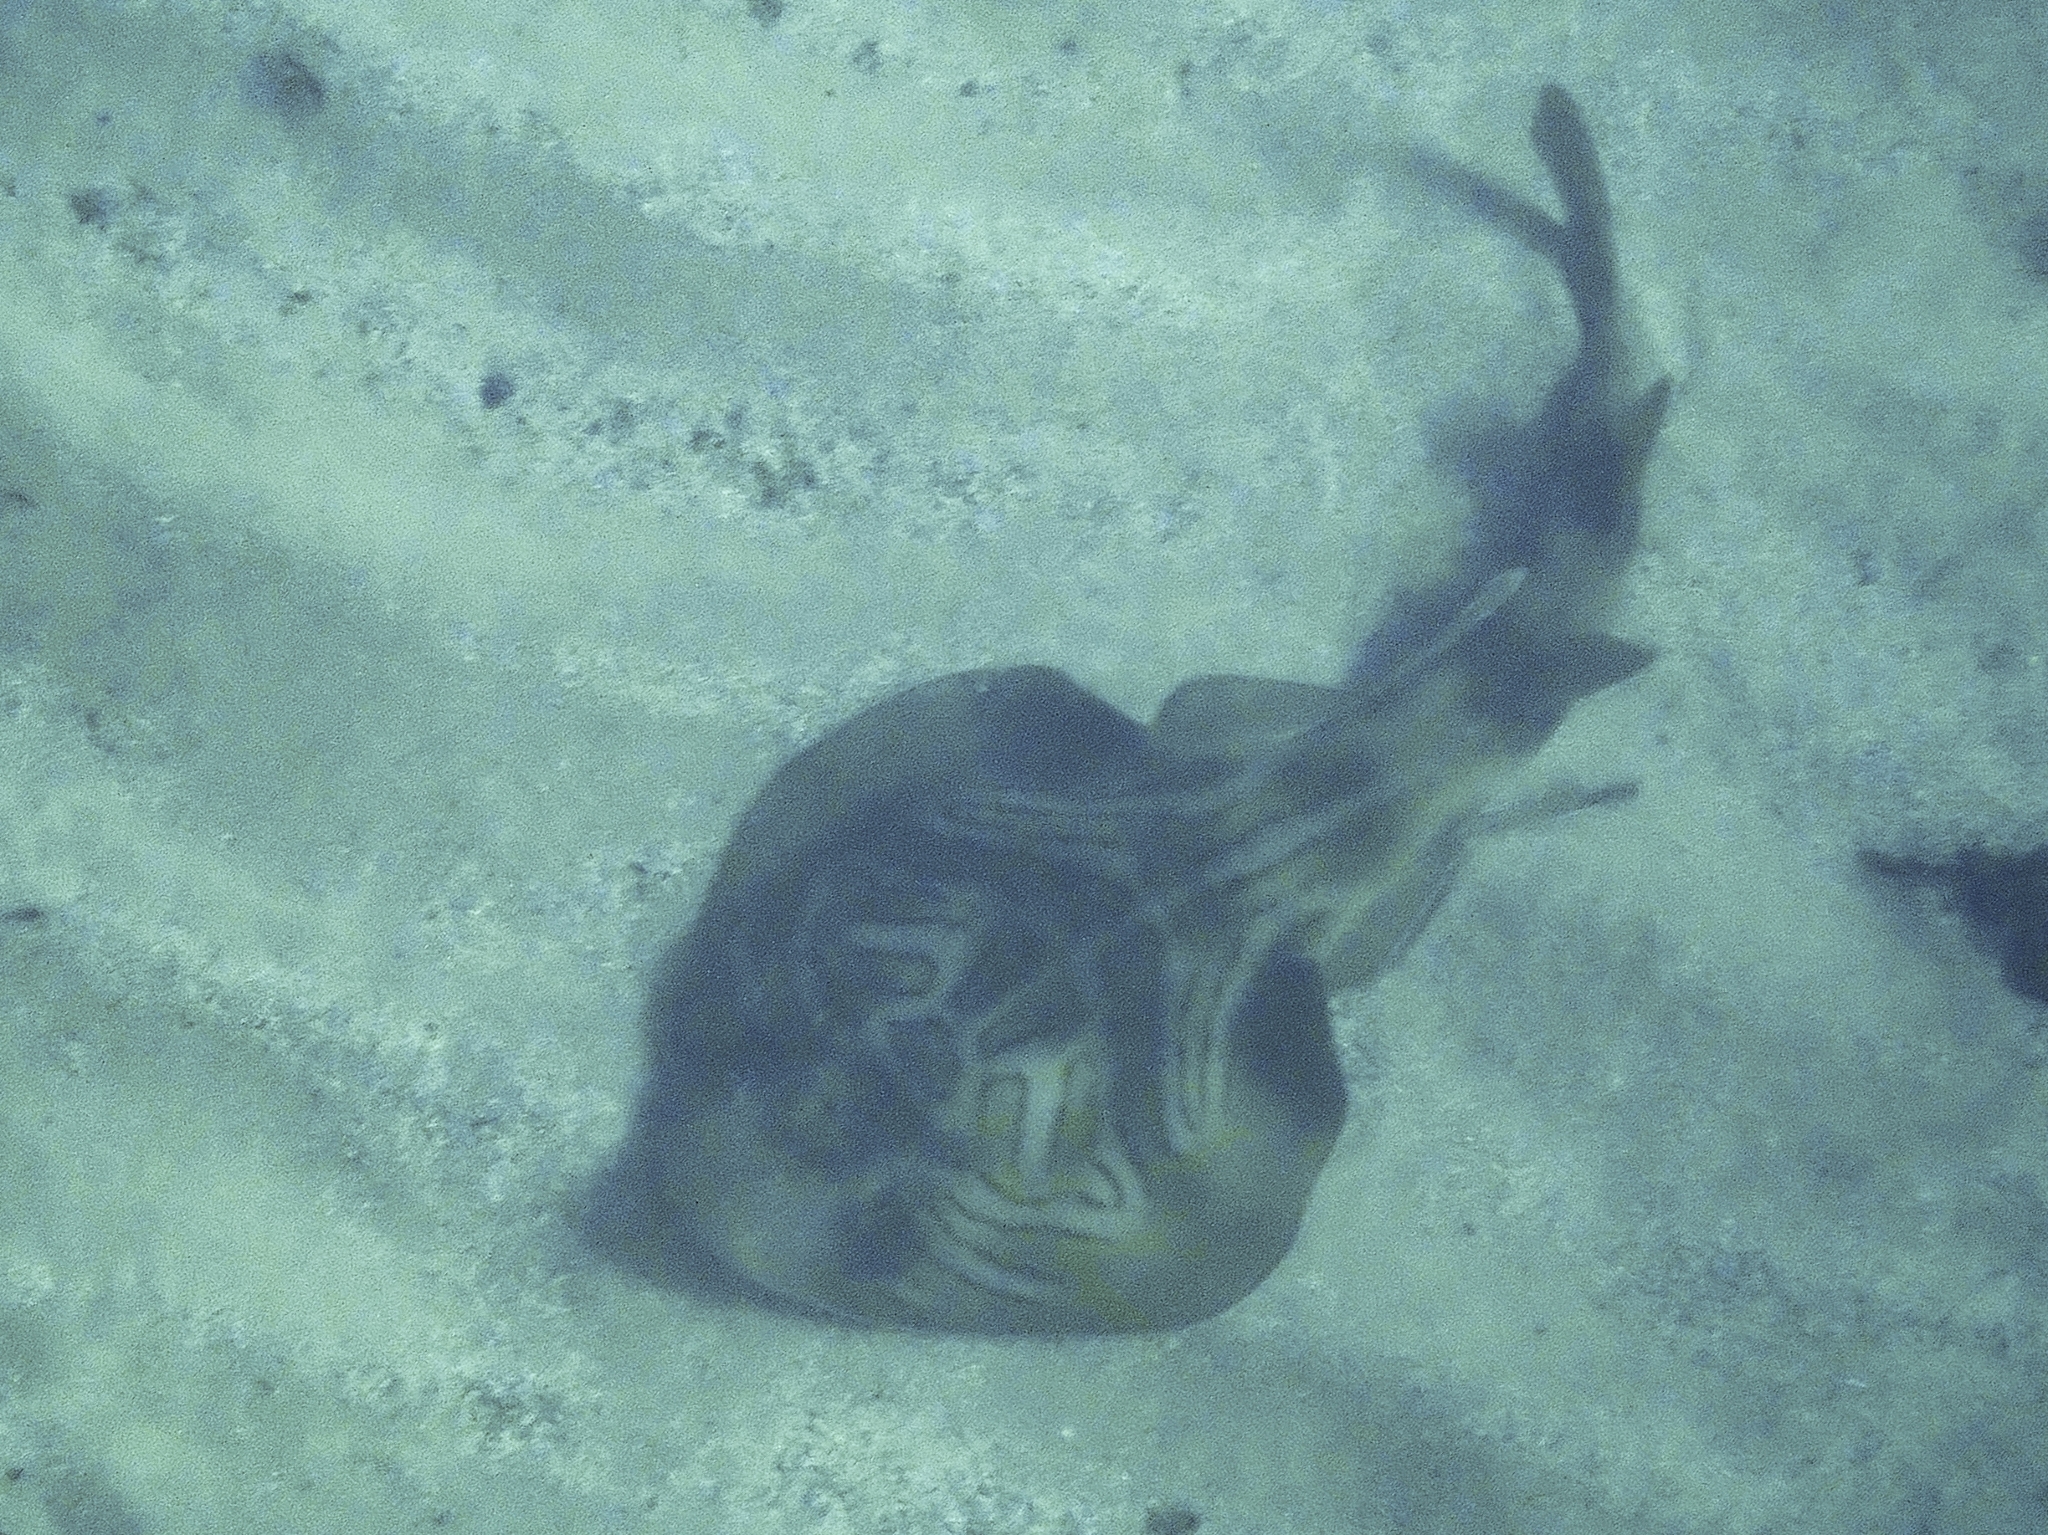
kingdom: Animalia
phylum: Chordata
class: Elasmobranchii
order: Rhinopristiformes
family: Rhinobatidae
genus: Trygonorrhina
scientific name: Trygonorrhina fasciata
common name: Southern fiddler
